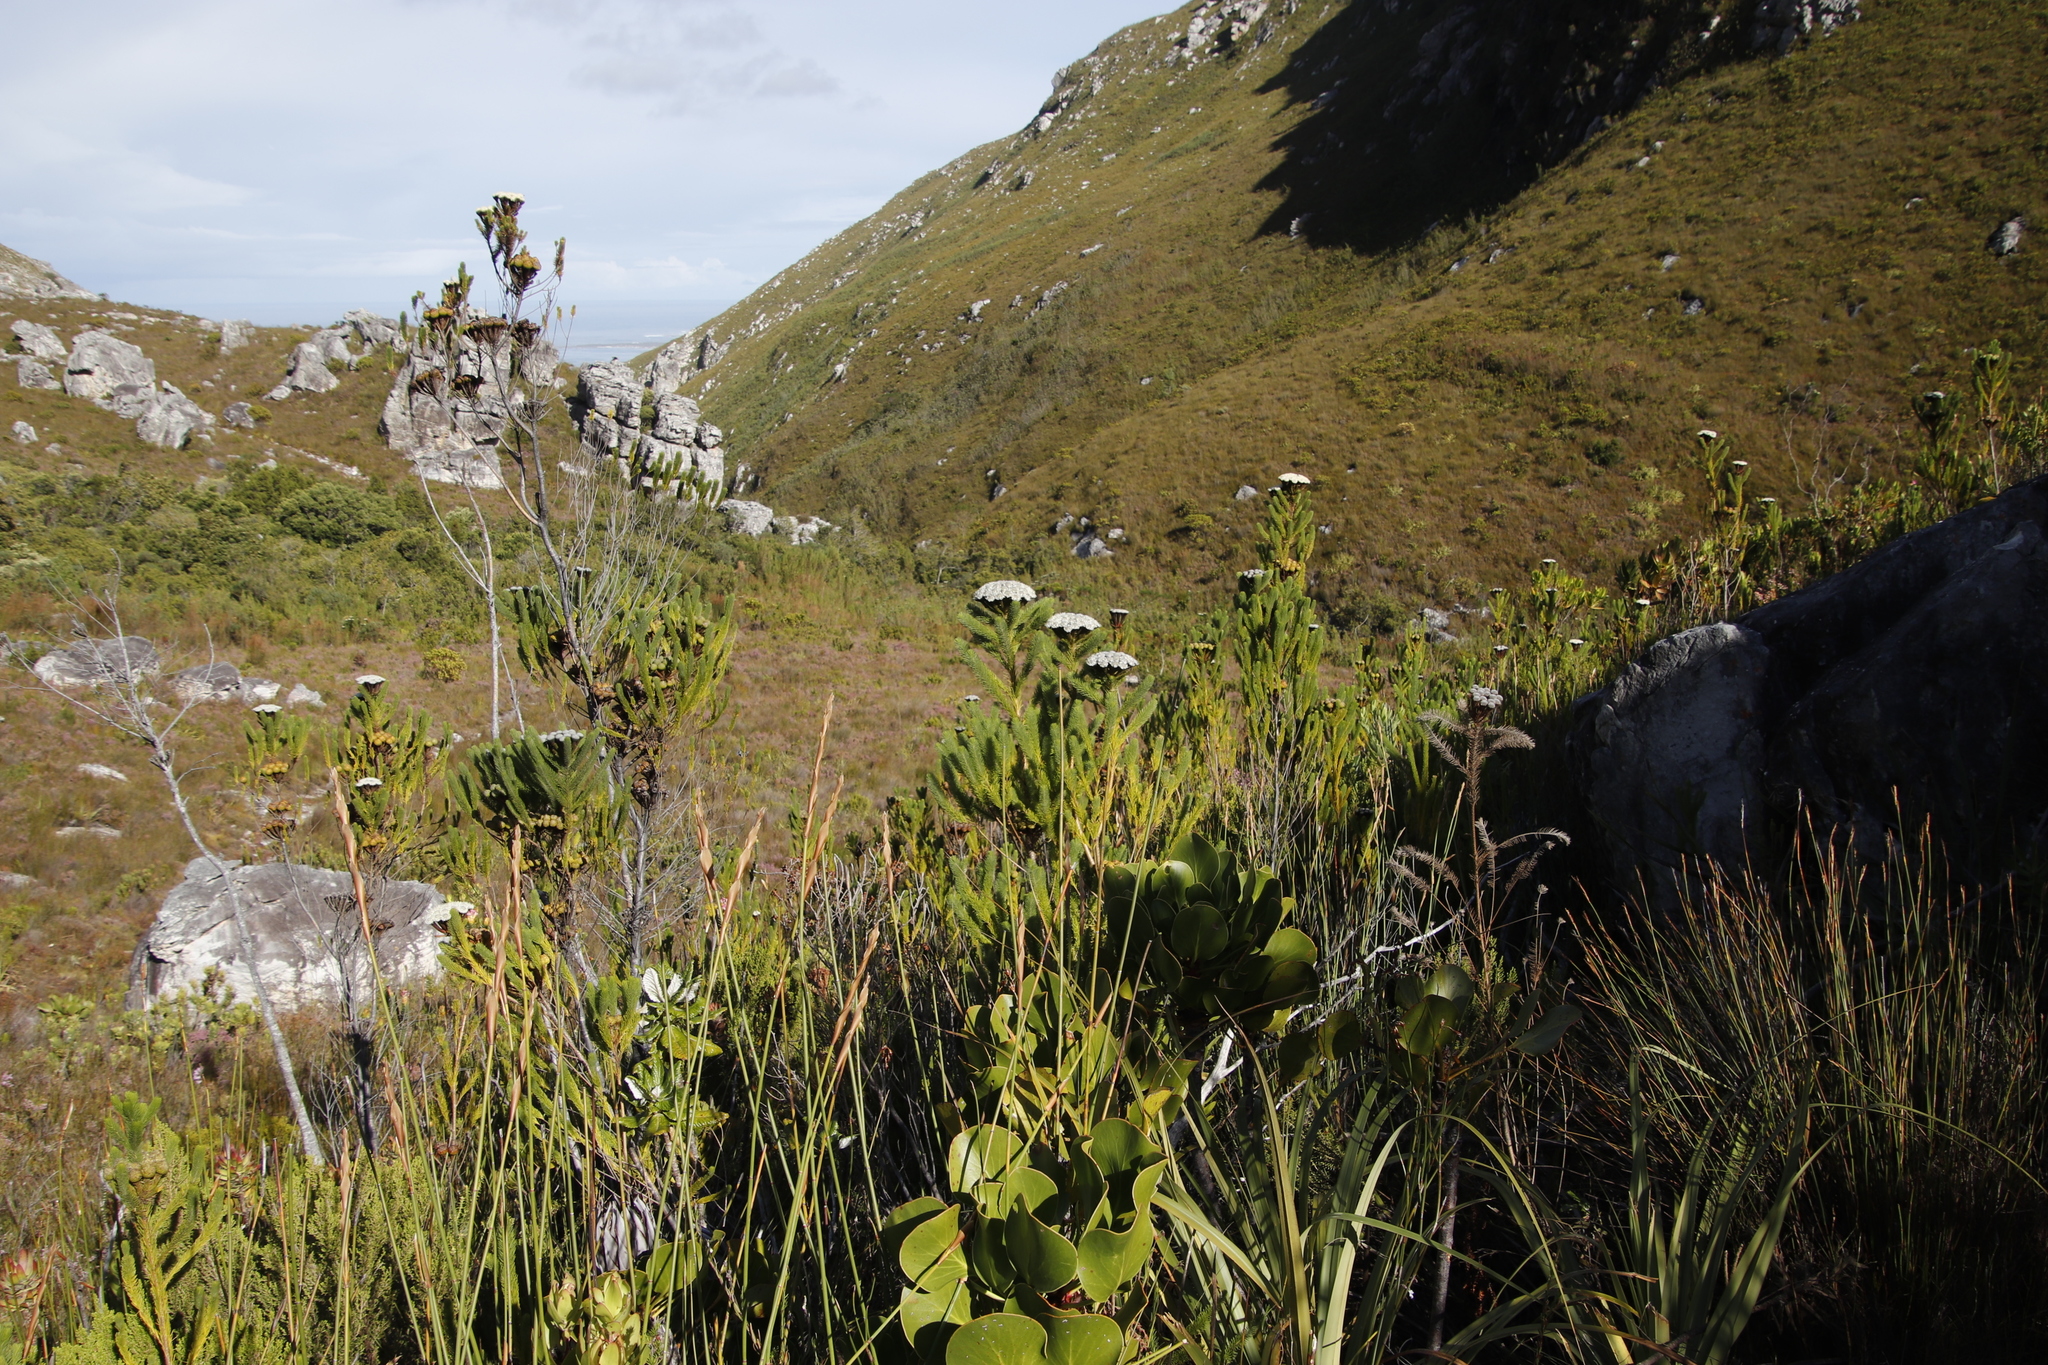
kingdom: Plantae
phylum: Tracheophyta
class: Magnoliopsida
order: Bruniales
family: Bruniaceae
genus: Berzelia
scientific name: Berzelia albiflora
